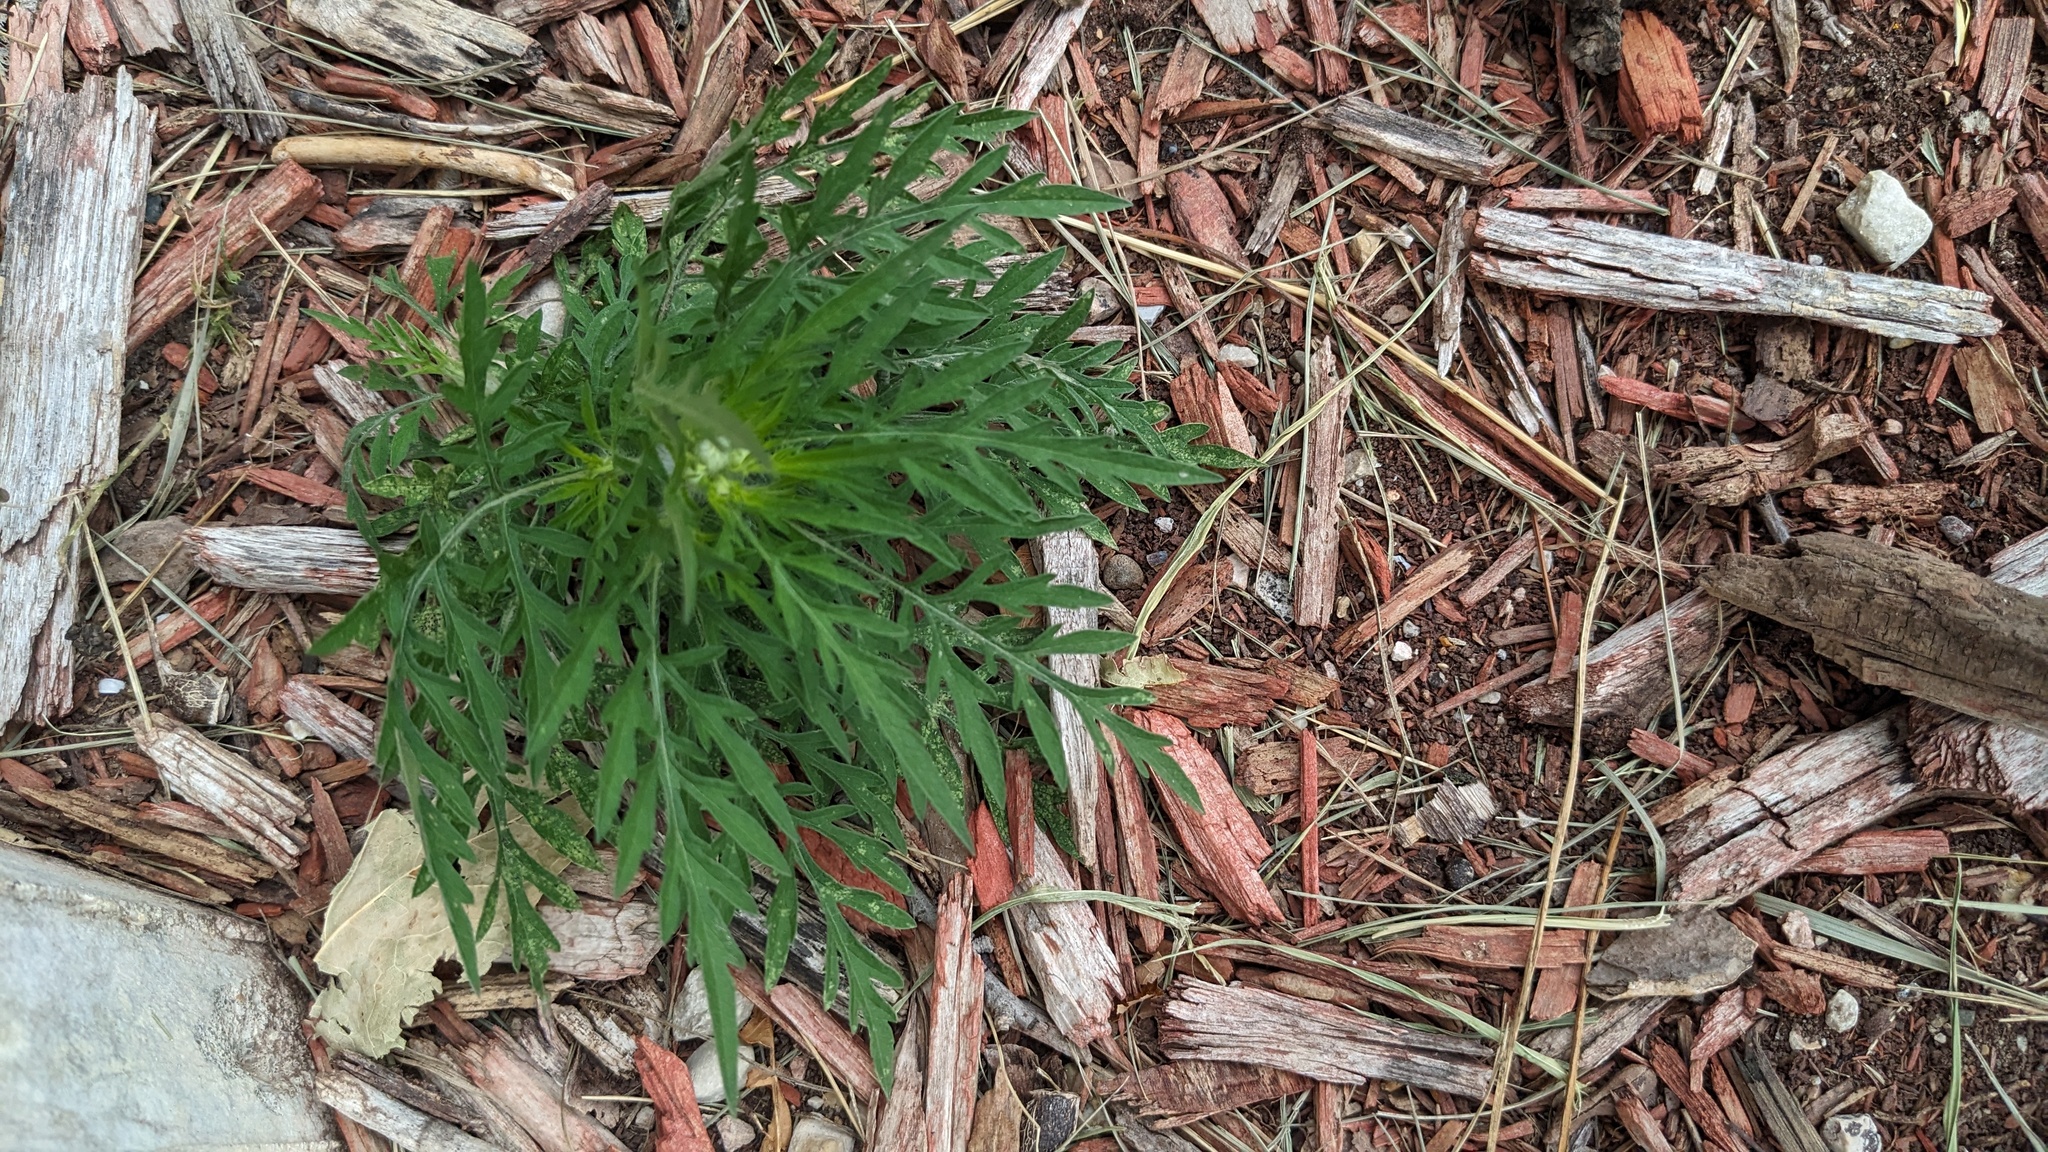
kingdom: Plantae
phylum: Tracheophyta
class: Magnoliopsida
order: Asterales
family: Asteraceae
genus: Ambrosia
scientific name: Ambrosia artemisiifolia
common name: Annual ragweed
